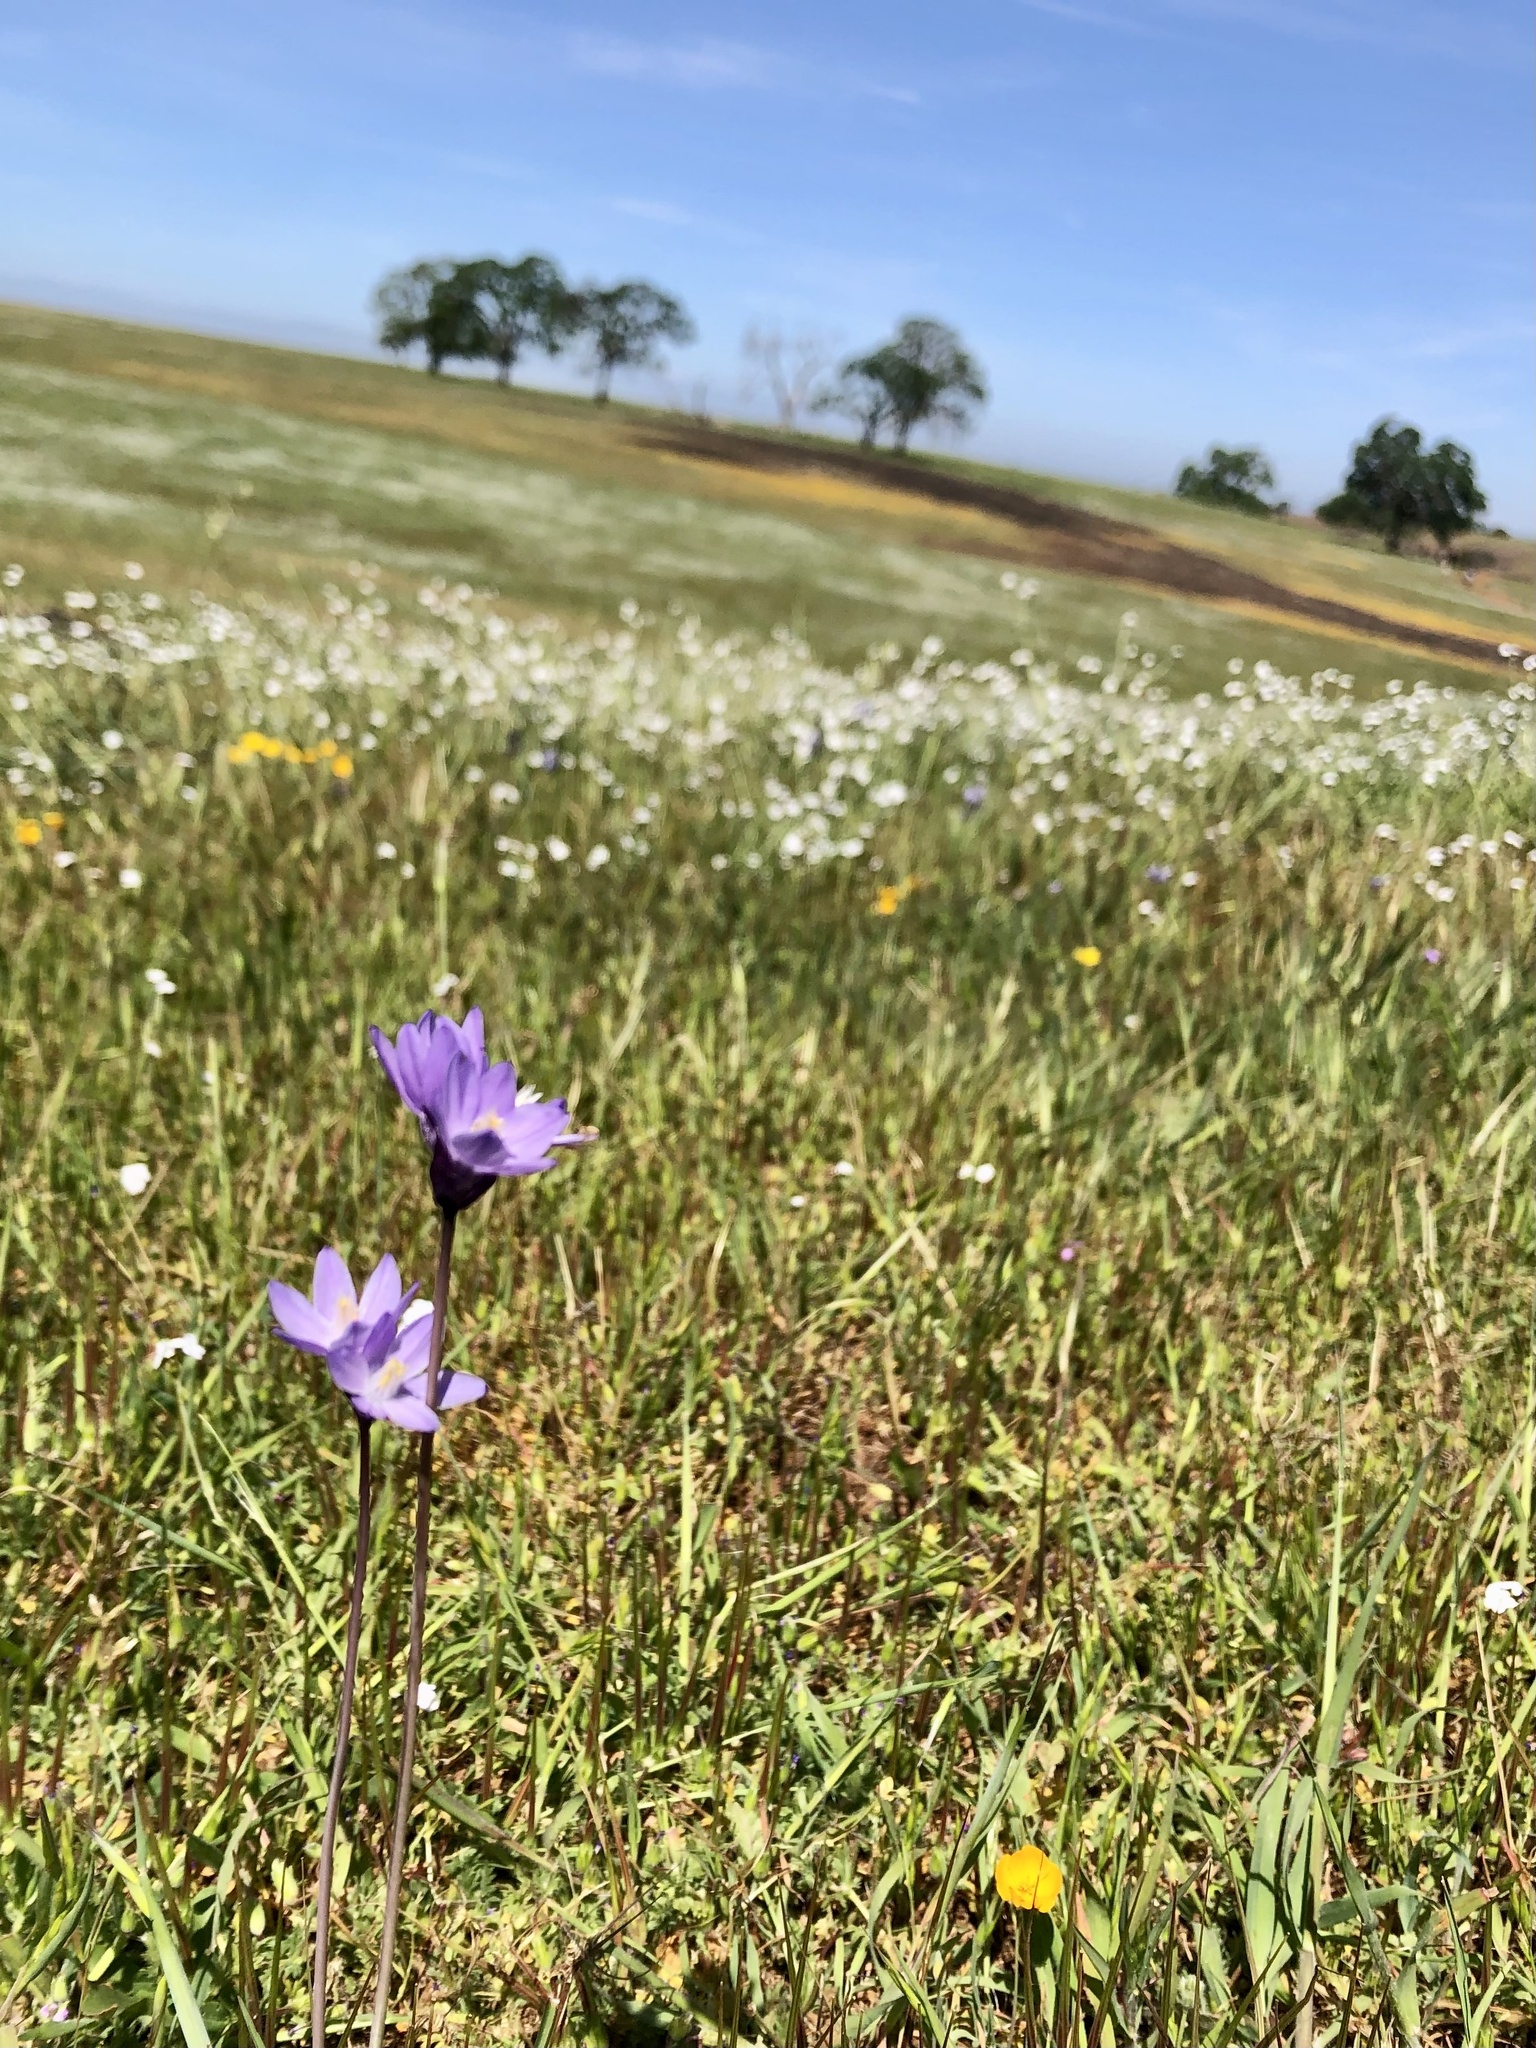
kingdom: Plantae
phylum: Tracheophyta
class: Liliopsida
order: Asparagales
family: Asparagaceae
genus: Dipterostemon
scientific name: Dipterostemon capitatus
